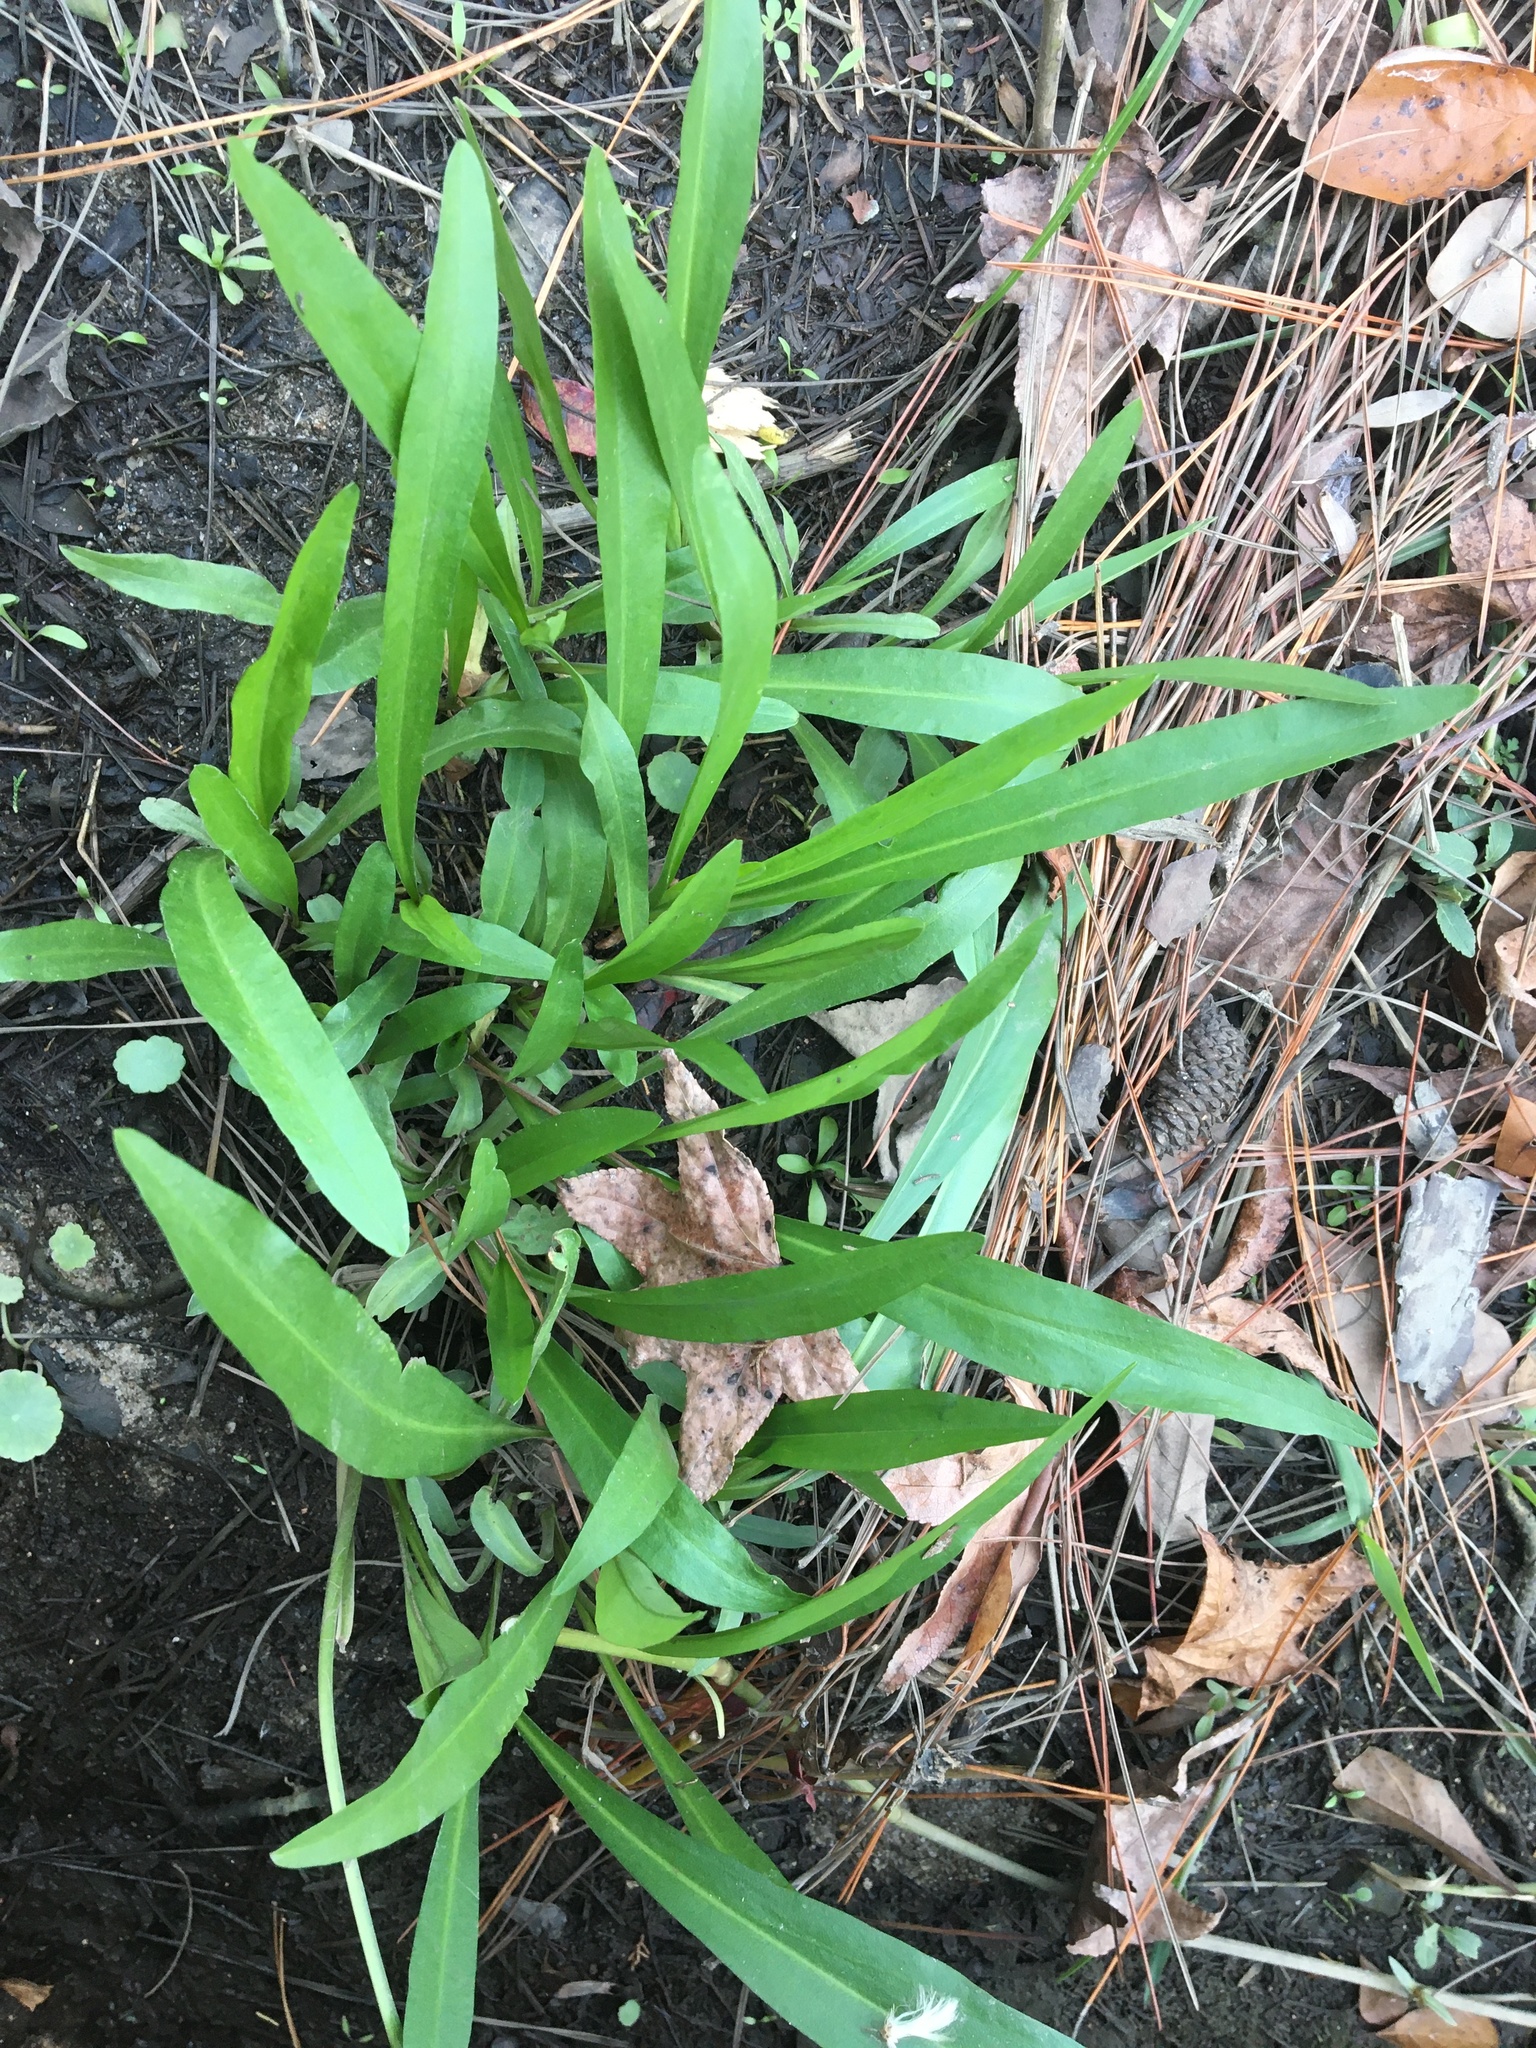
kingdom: Plantae
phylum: Tracheophyta
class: Magnoliopsida
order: Asterales
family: Asteraceae
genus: Solidago
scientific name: Solidago mexicana
